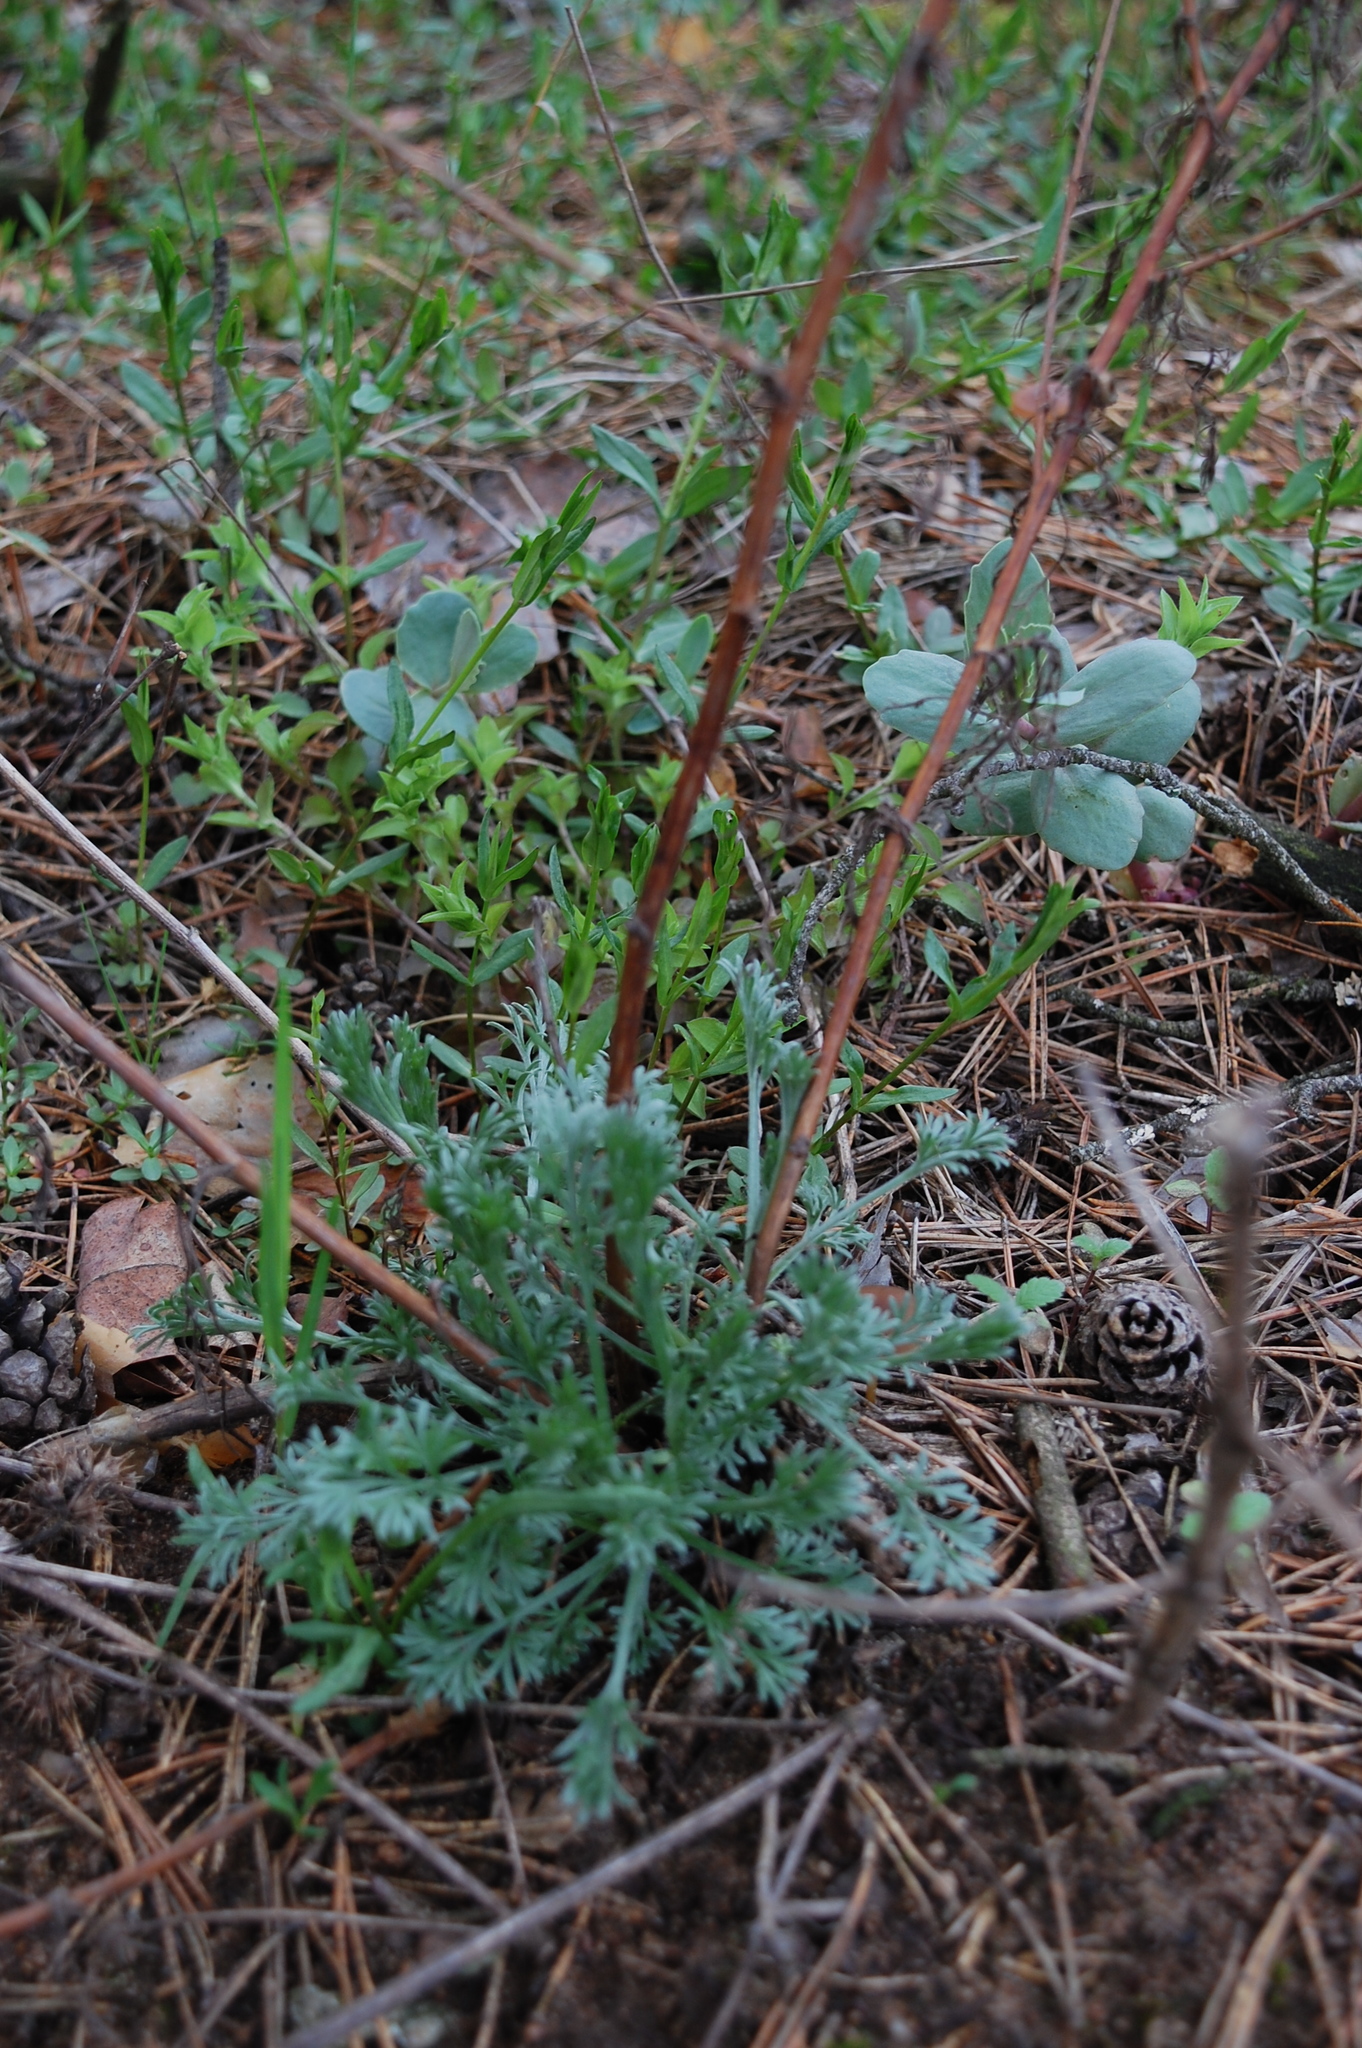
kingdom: Plantae
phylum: Tracheophyta
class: Magnoliopsida
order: Asterales
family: Asteraceae
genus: Artemisia
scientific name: Artemisia campestris
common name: Field wormwood
